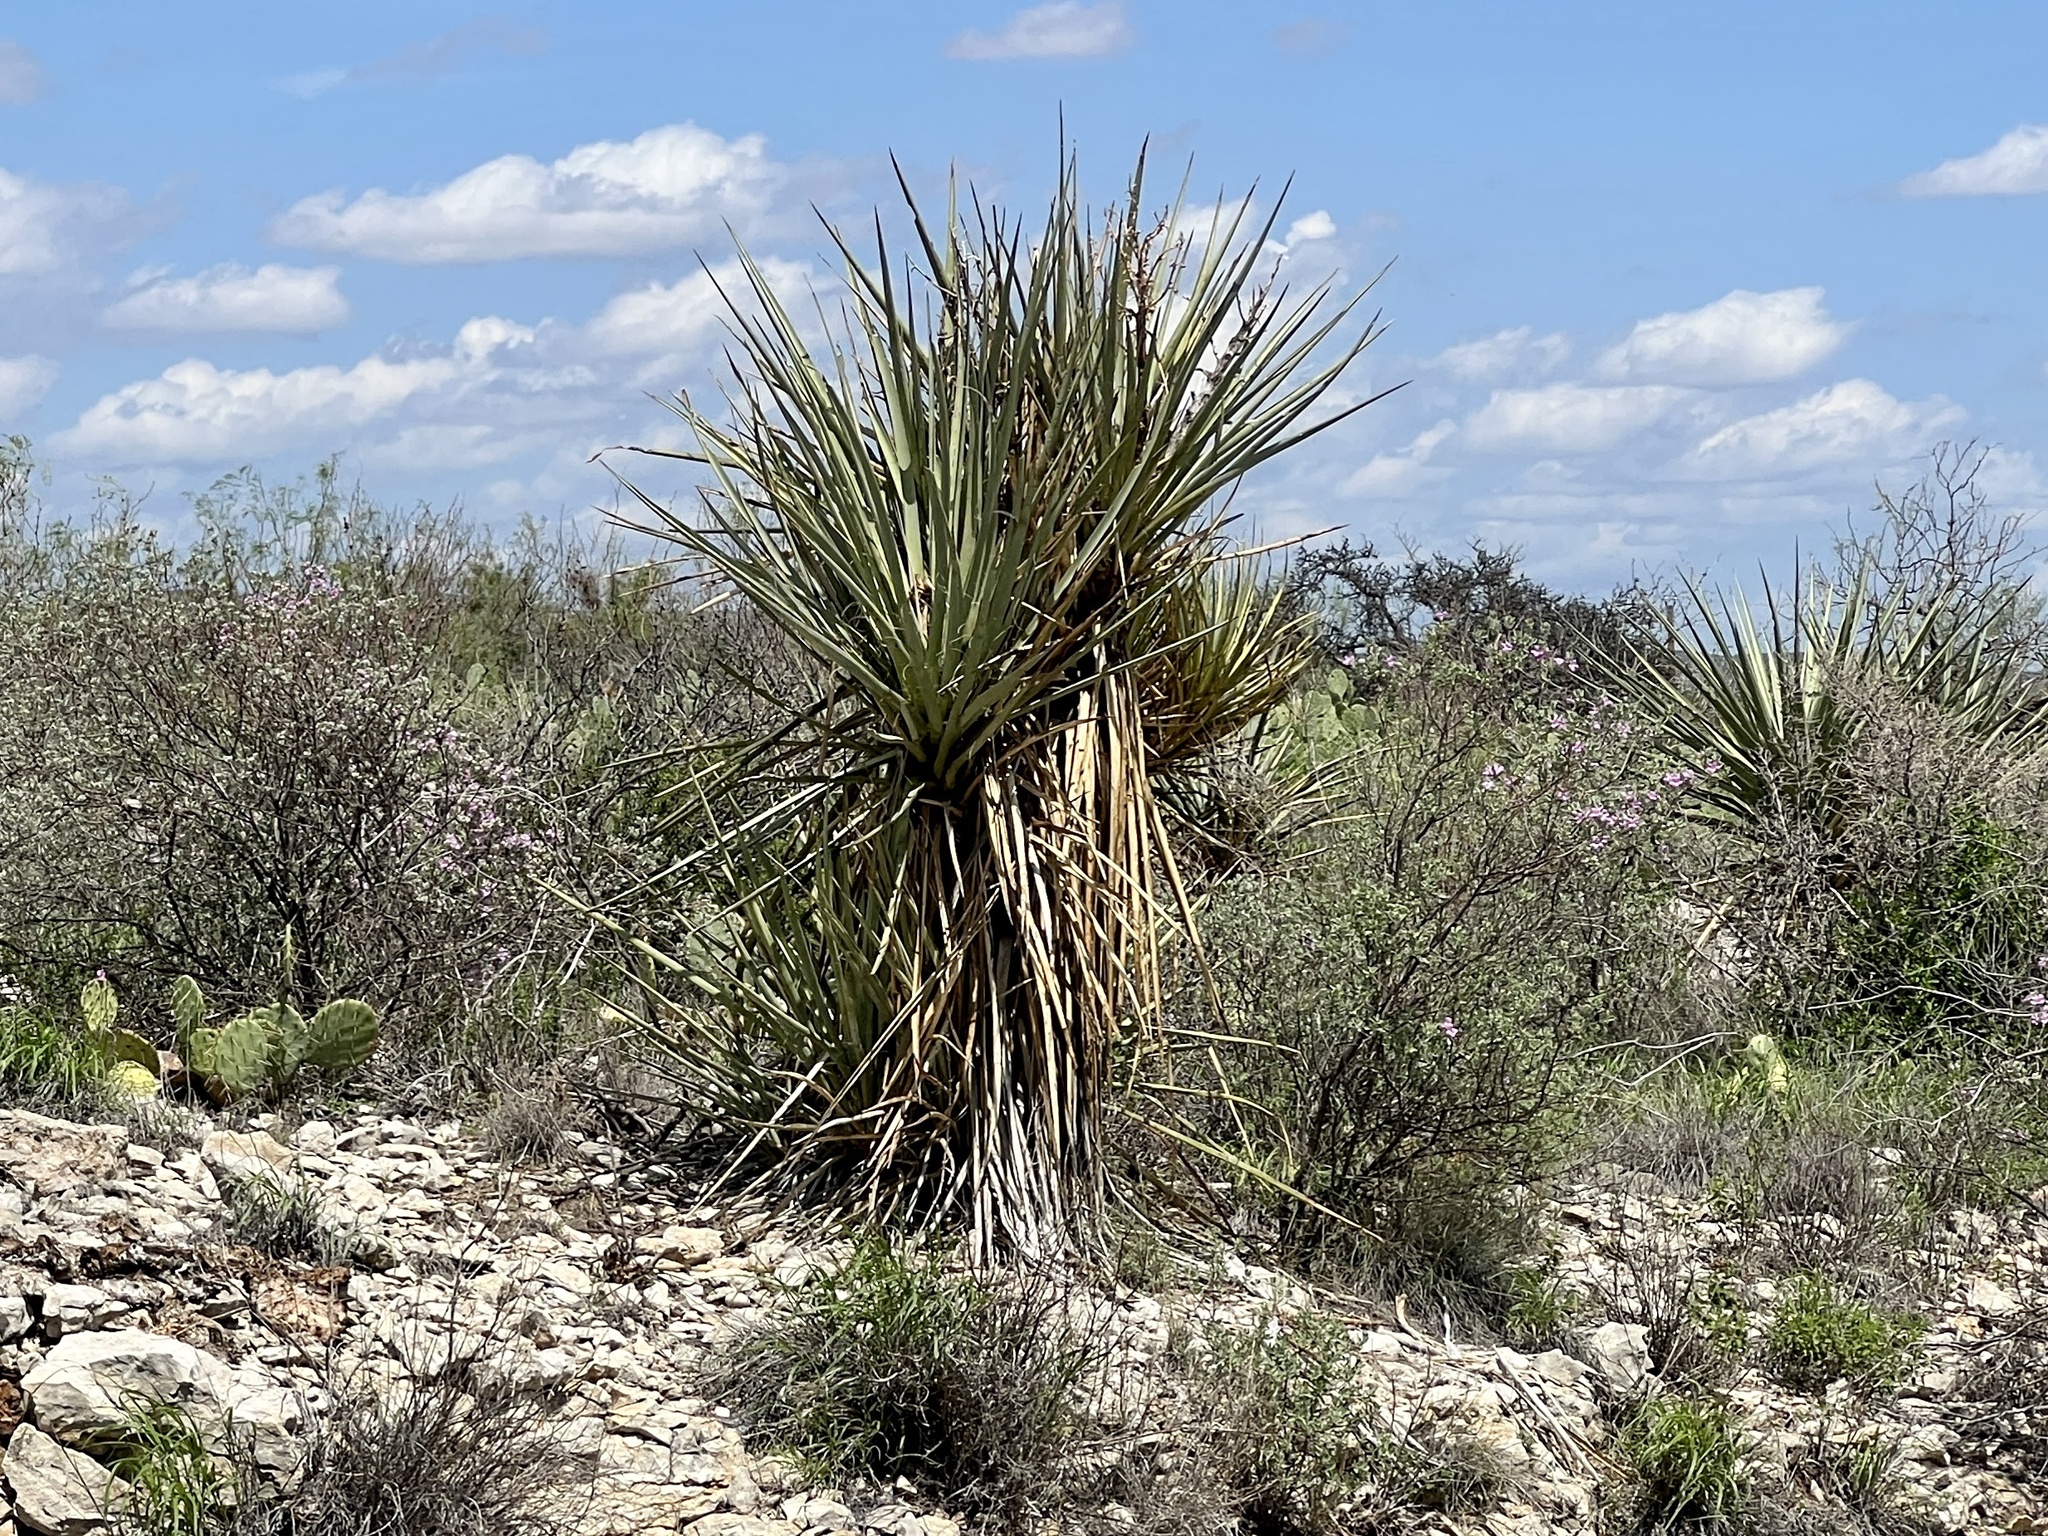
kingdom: Plantae
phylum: Tracheophyta
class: Liliopsida
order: Asparagales
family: Asparagaceae
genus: Yucca
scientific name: Yucca treculiana
